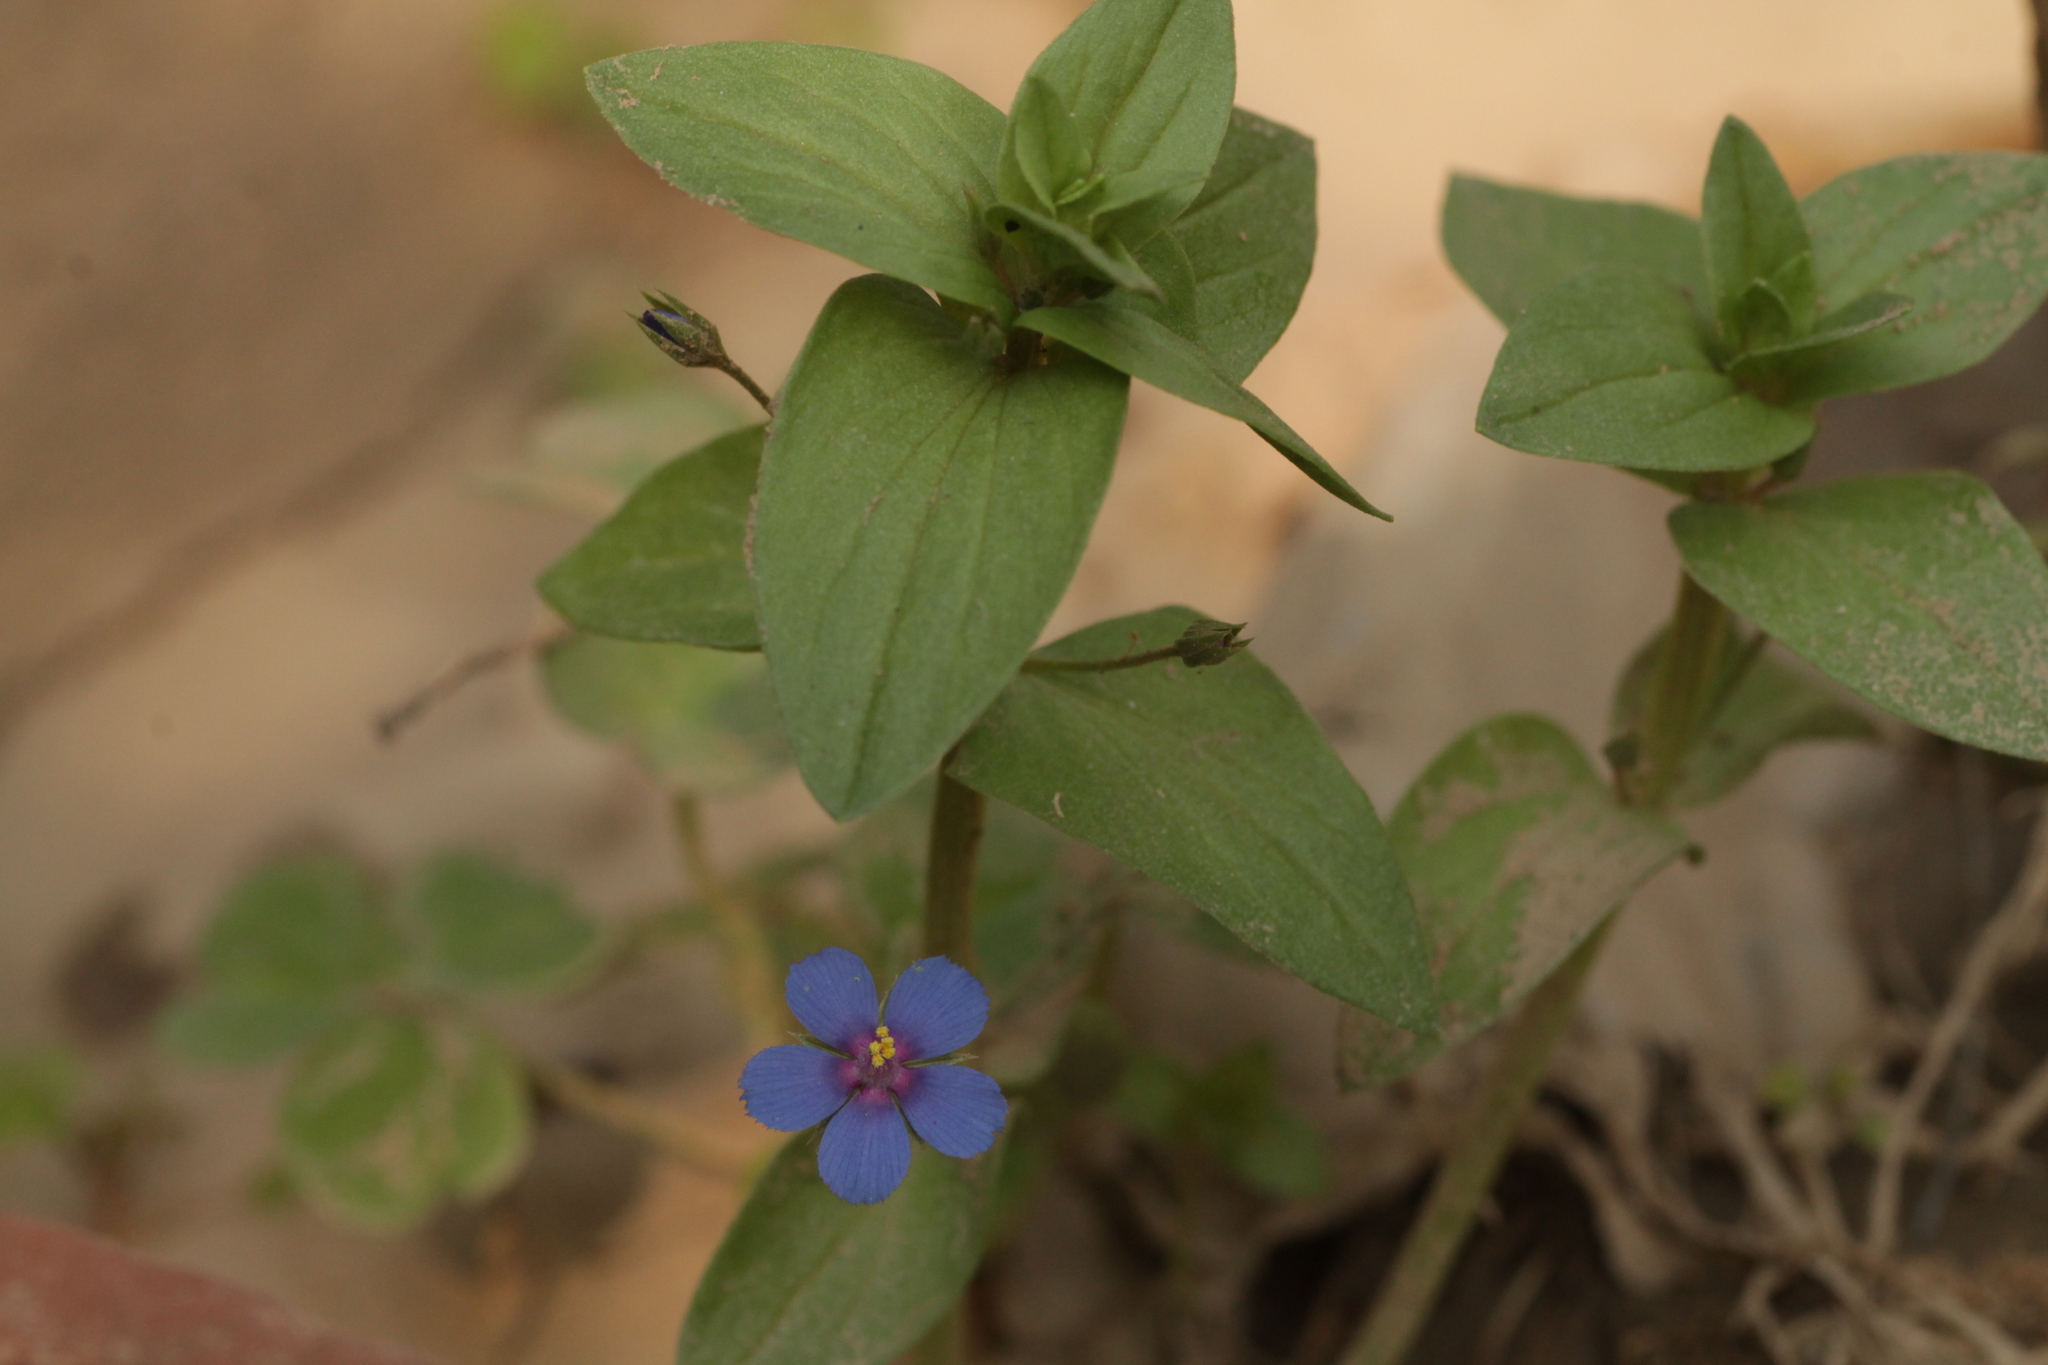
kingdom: Plantae
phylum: Tracheophyta
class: Magnoliopsida
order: Ericales
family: Primulaceae
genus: Lysimachia
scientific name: Lysimachia loeflingii
